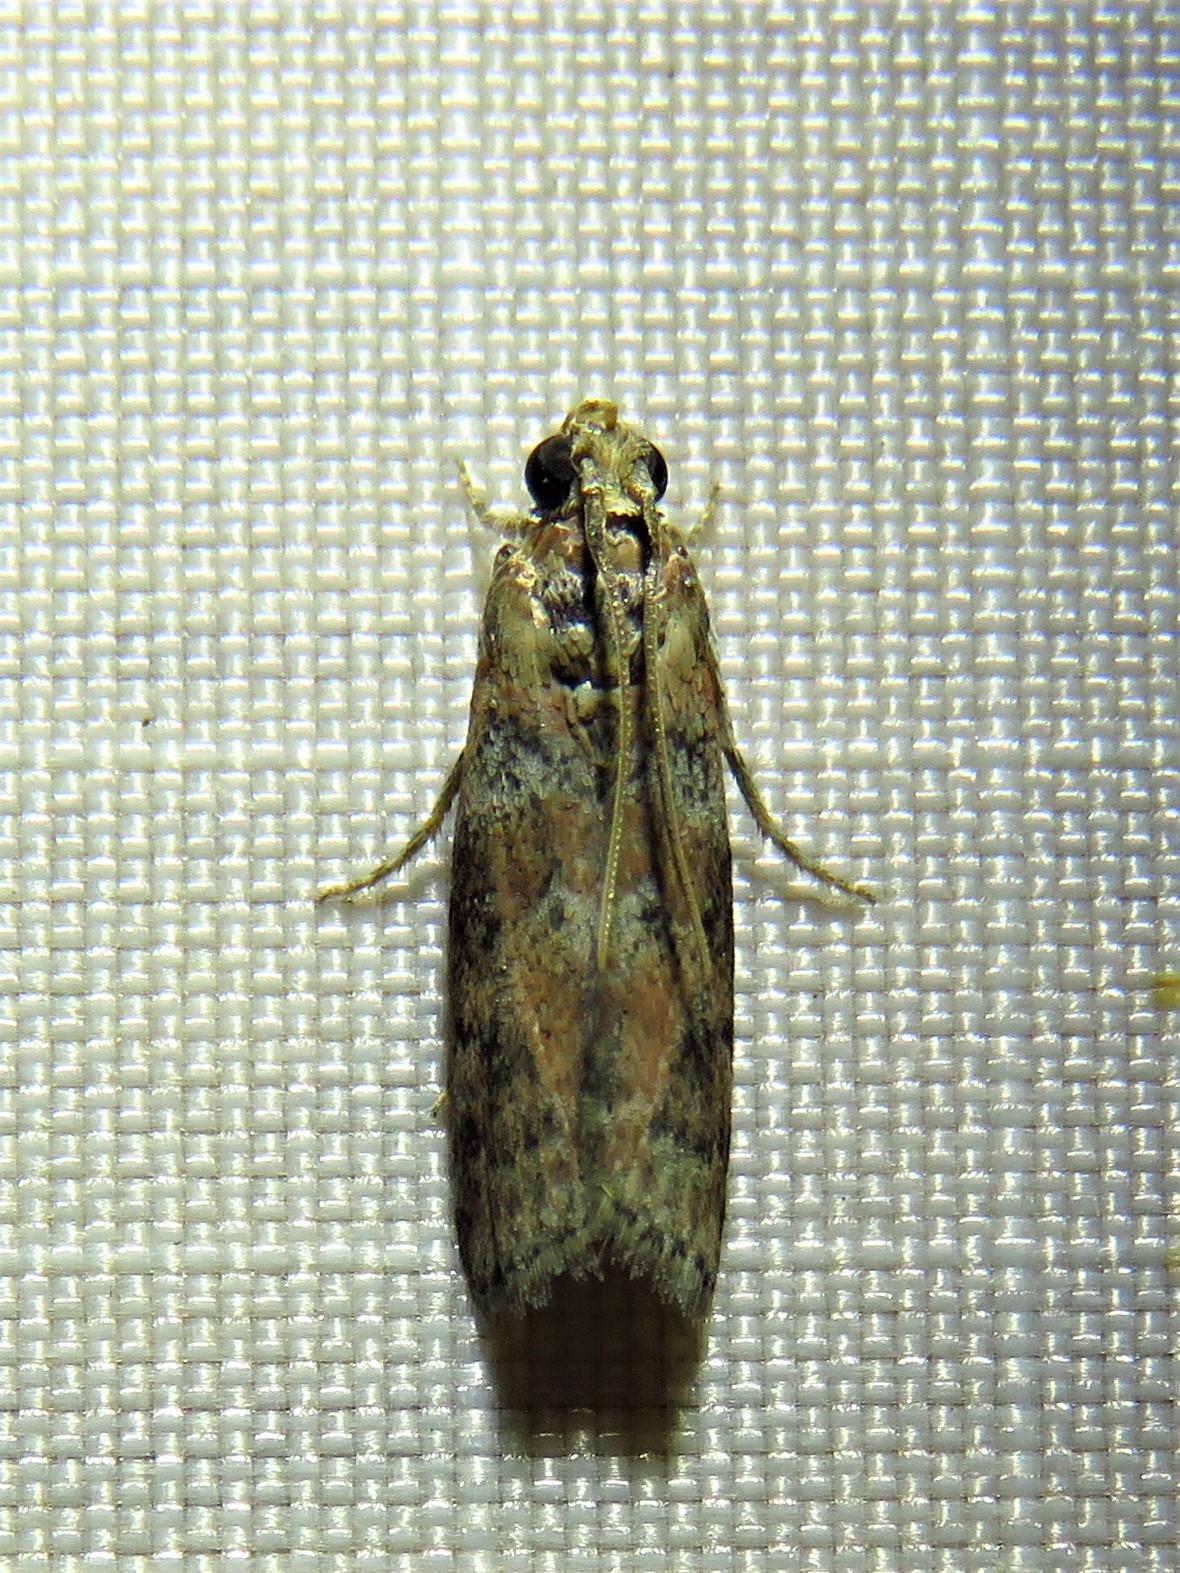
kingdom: Animalia
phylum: Arthropoda
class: Insecta
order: Lepidoptera
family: Pyralidae
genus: Sciota
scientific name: Sciota celtidella
